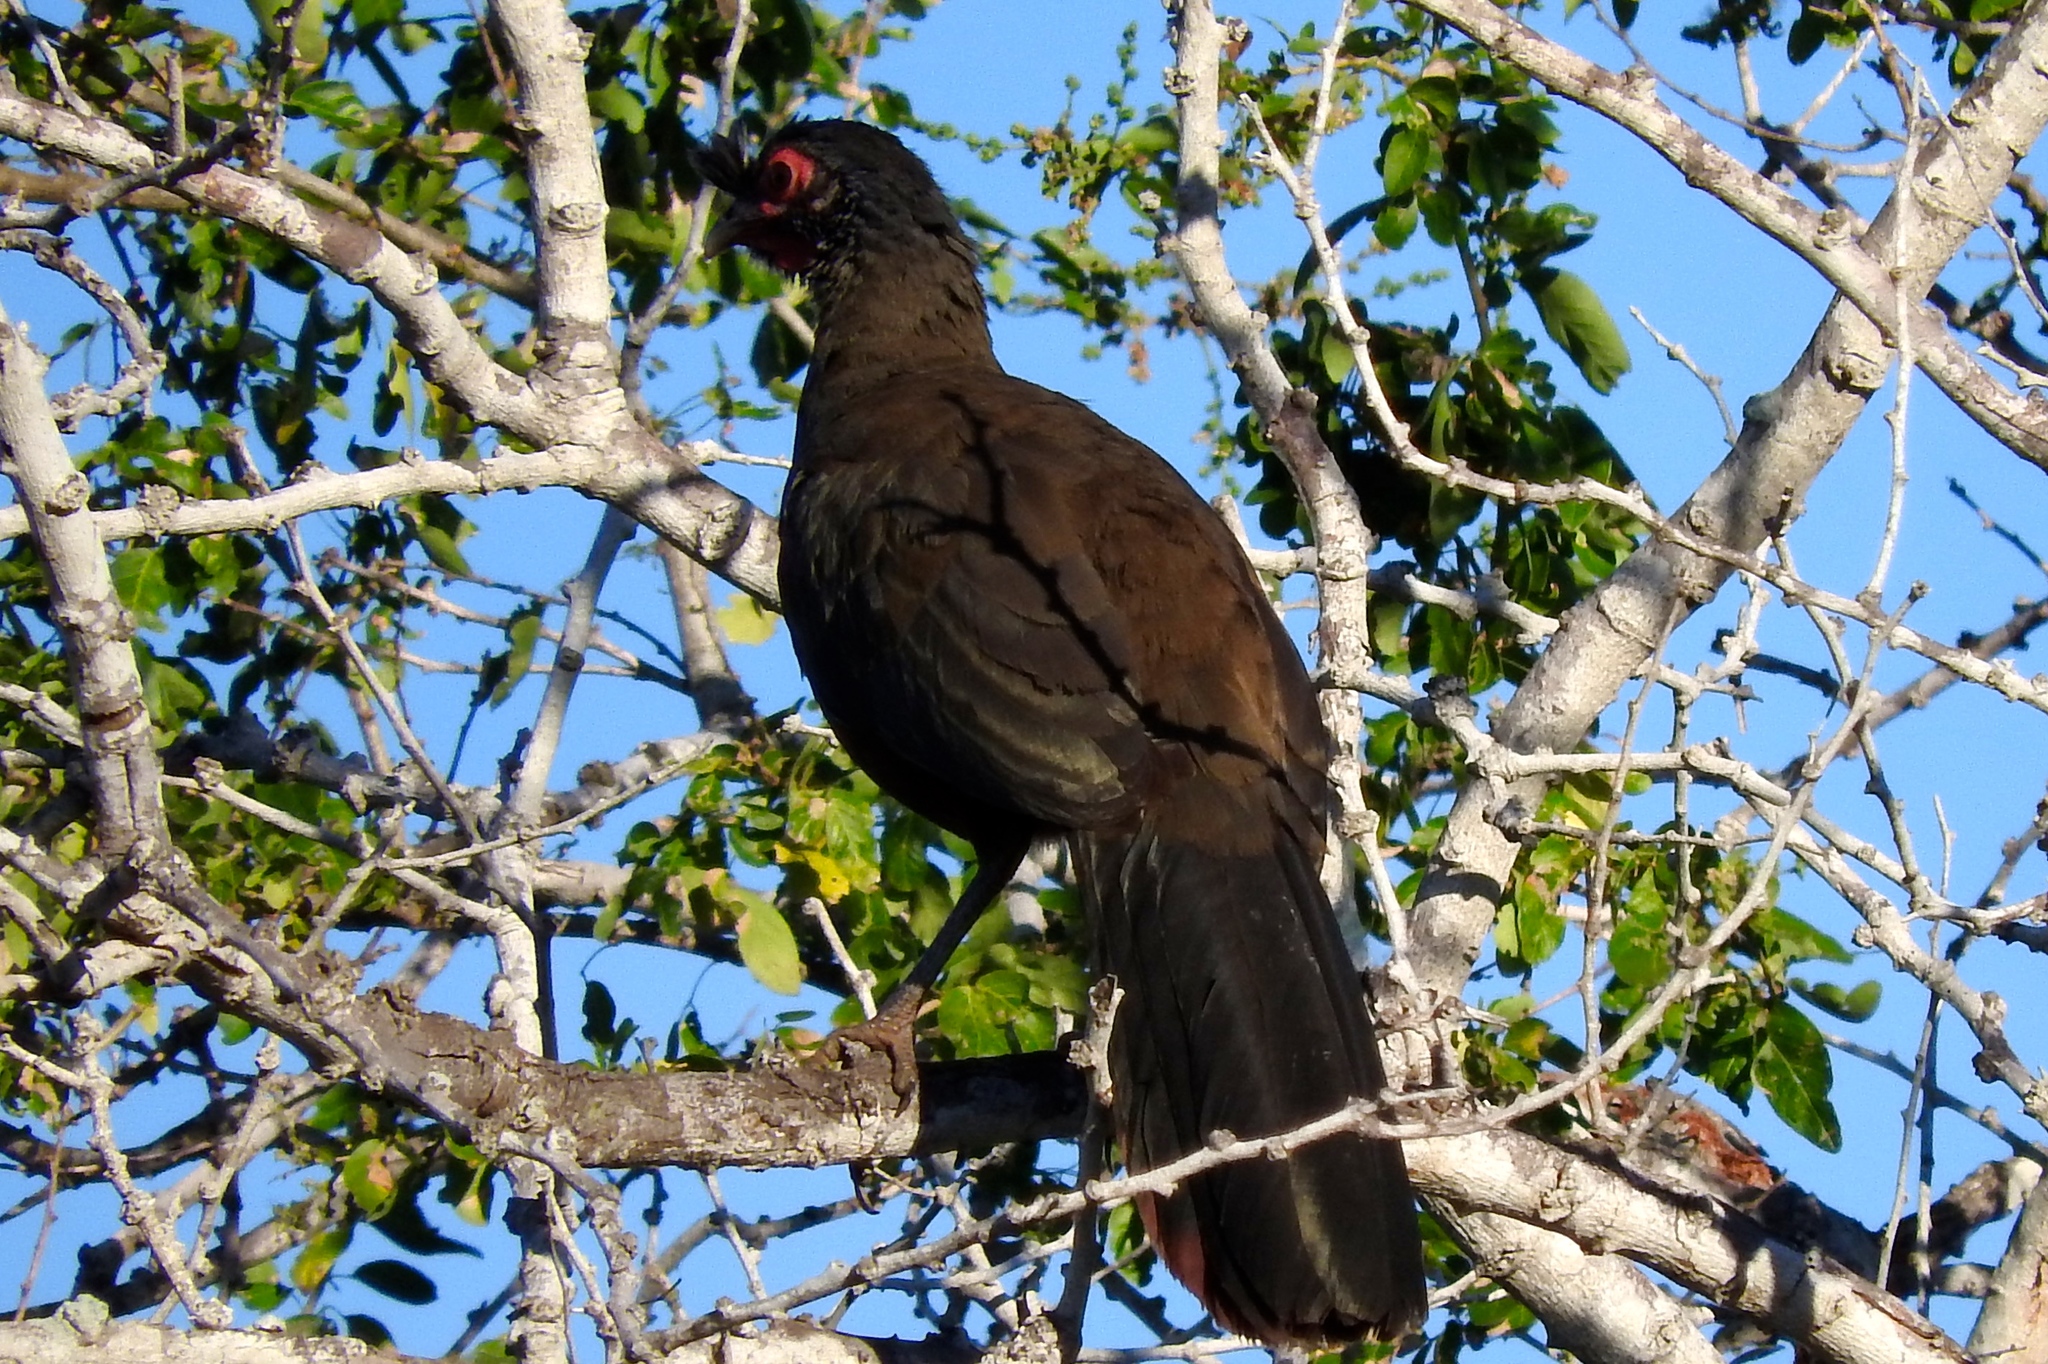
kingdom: Animalia
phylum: Chordata
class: Aves
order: Galliformes
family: Cracidae
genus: Ortalis
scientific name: Ortalis wagleri
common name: Rufous-bellied chachalaca
